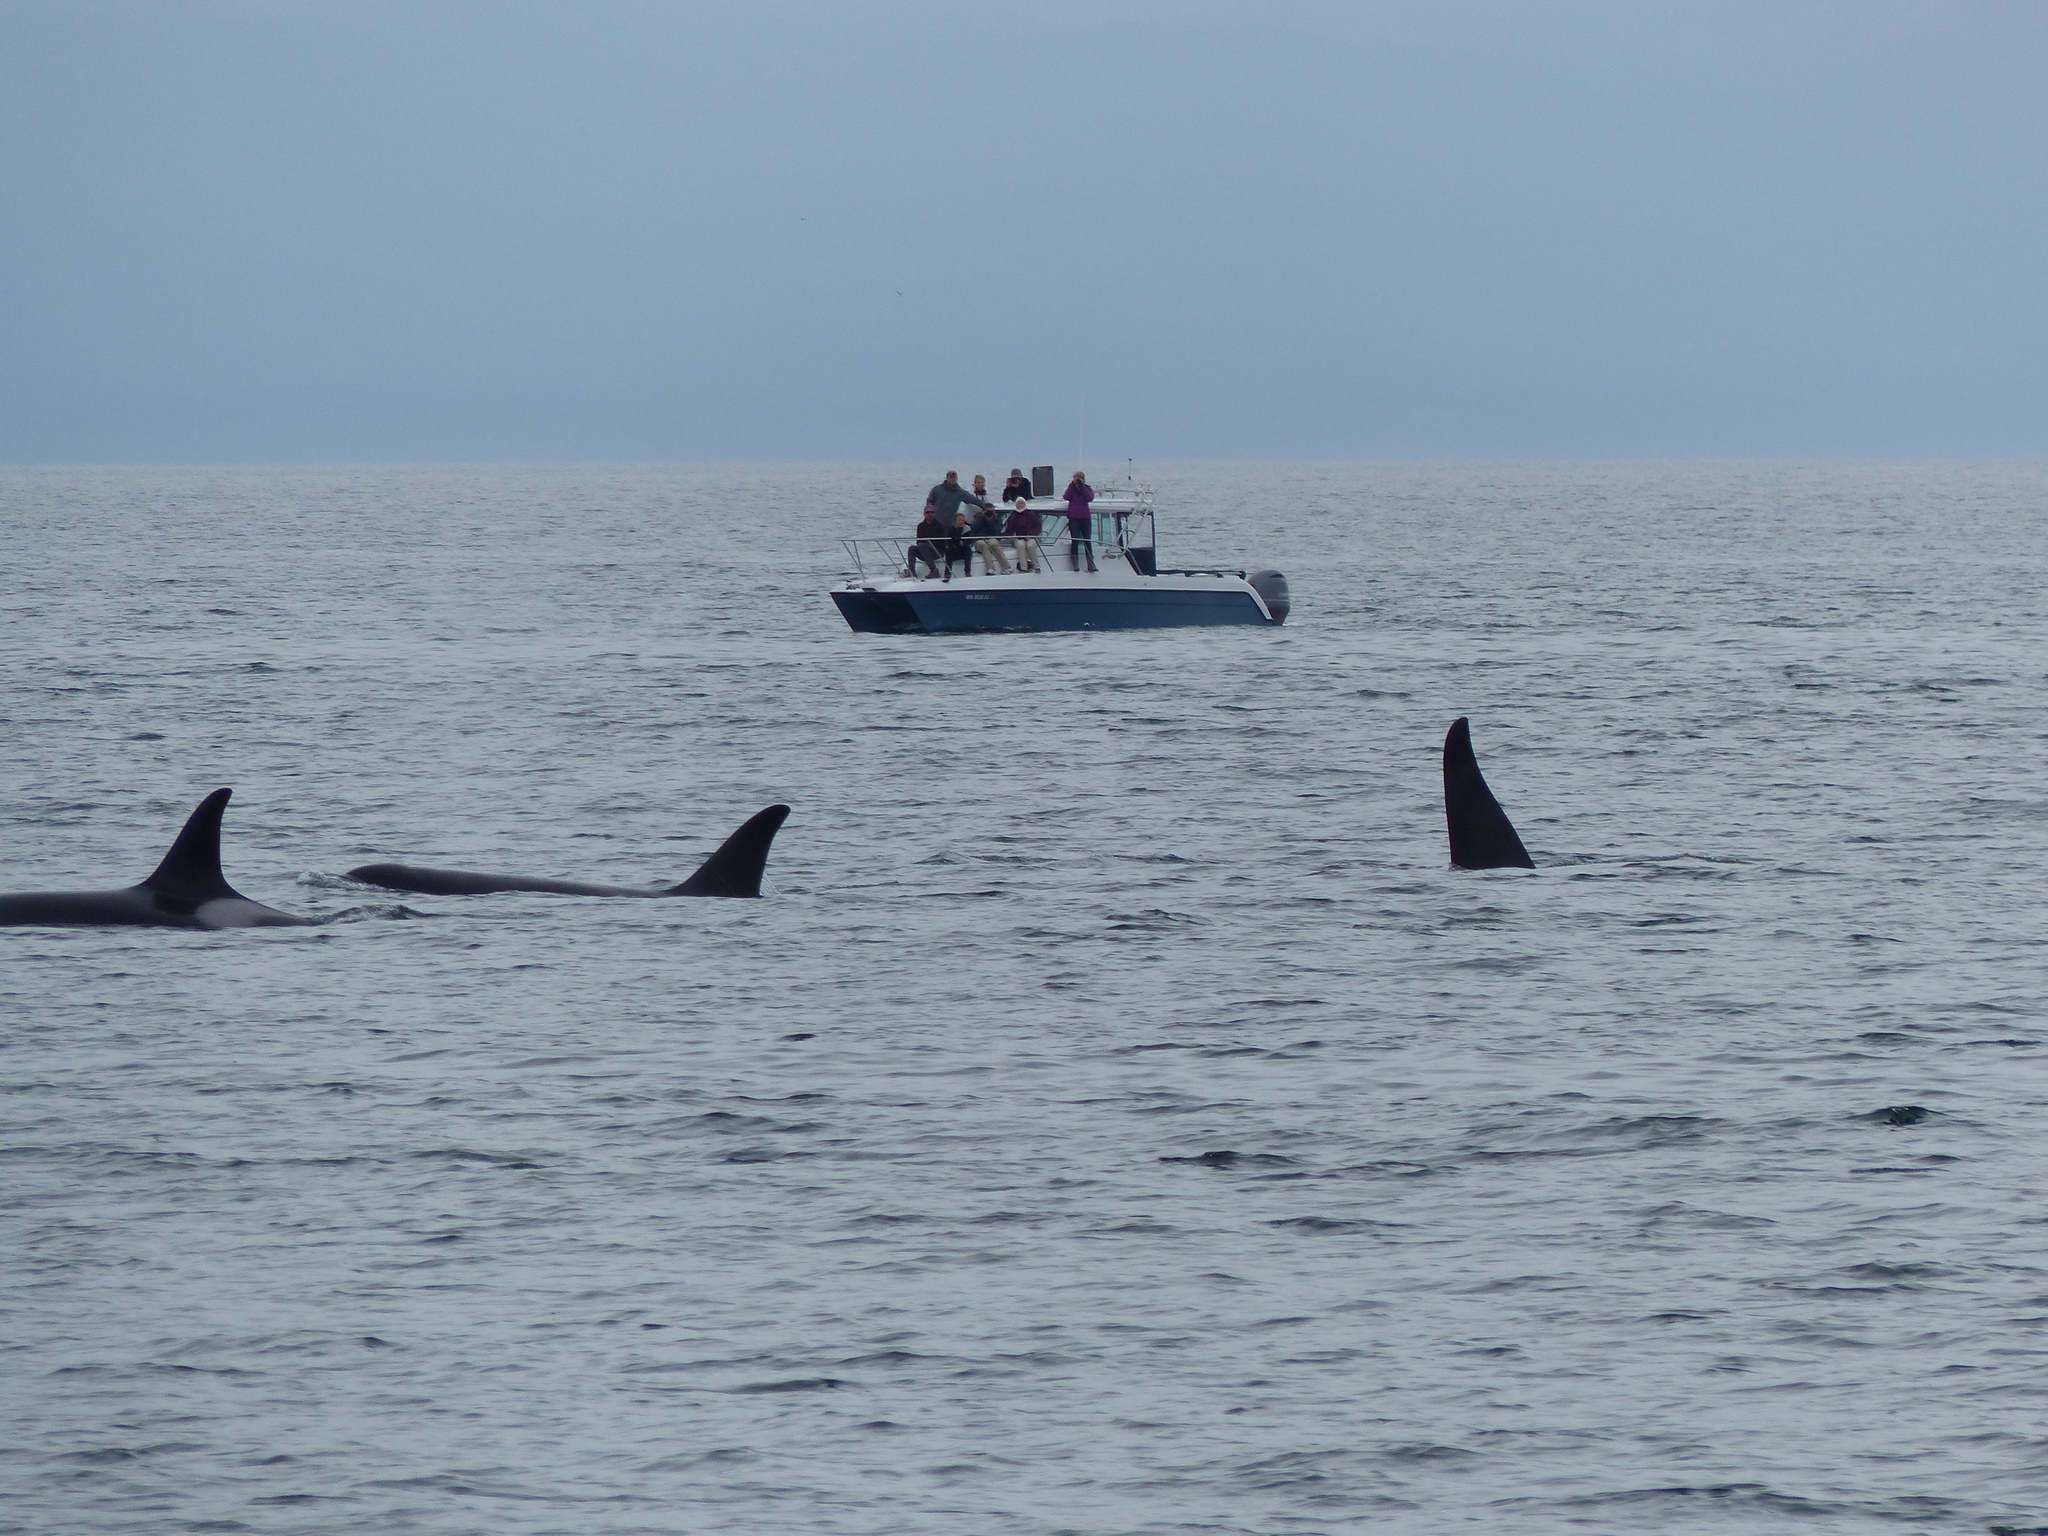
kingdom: Animalia
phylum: Chordata
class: Mammalia
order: Cetacea
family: Delphinidae
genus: Orcinus
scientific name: Orcinus orca
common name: Killer whale
